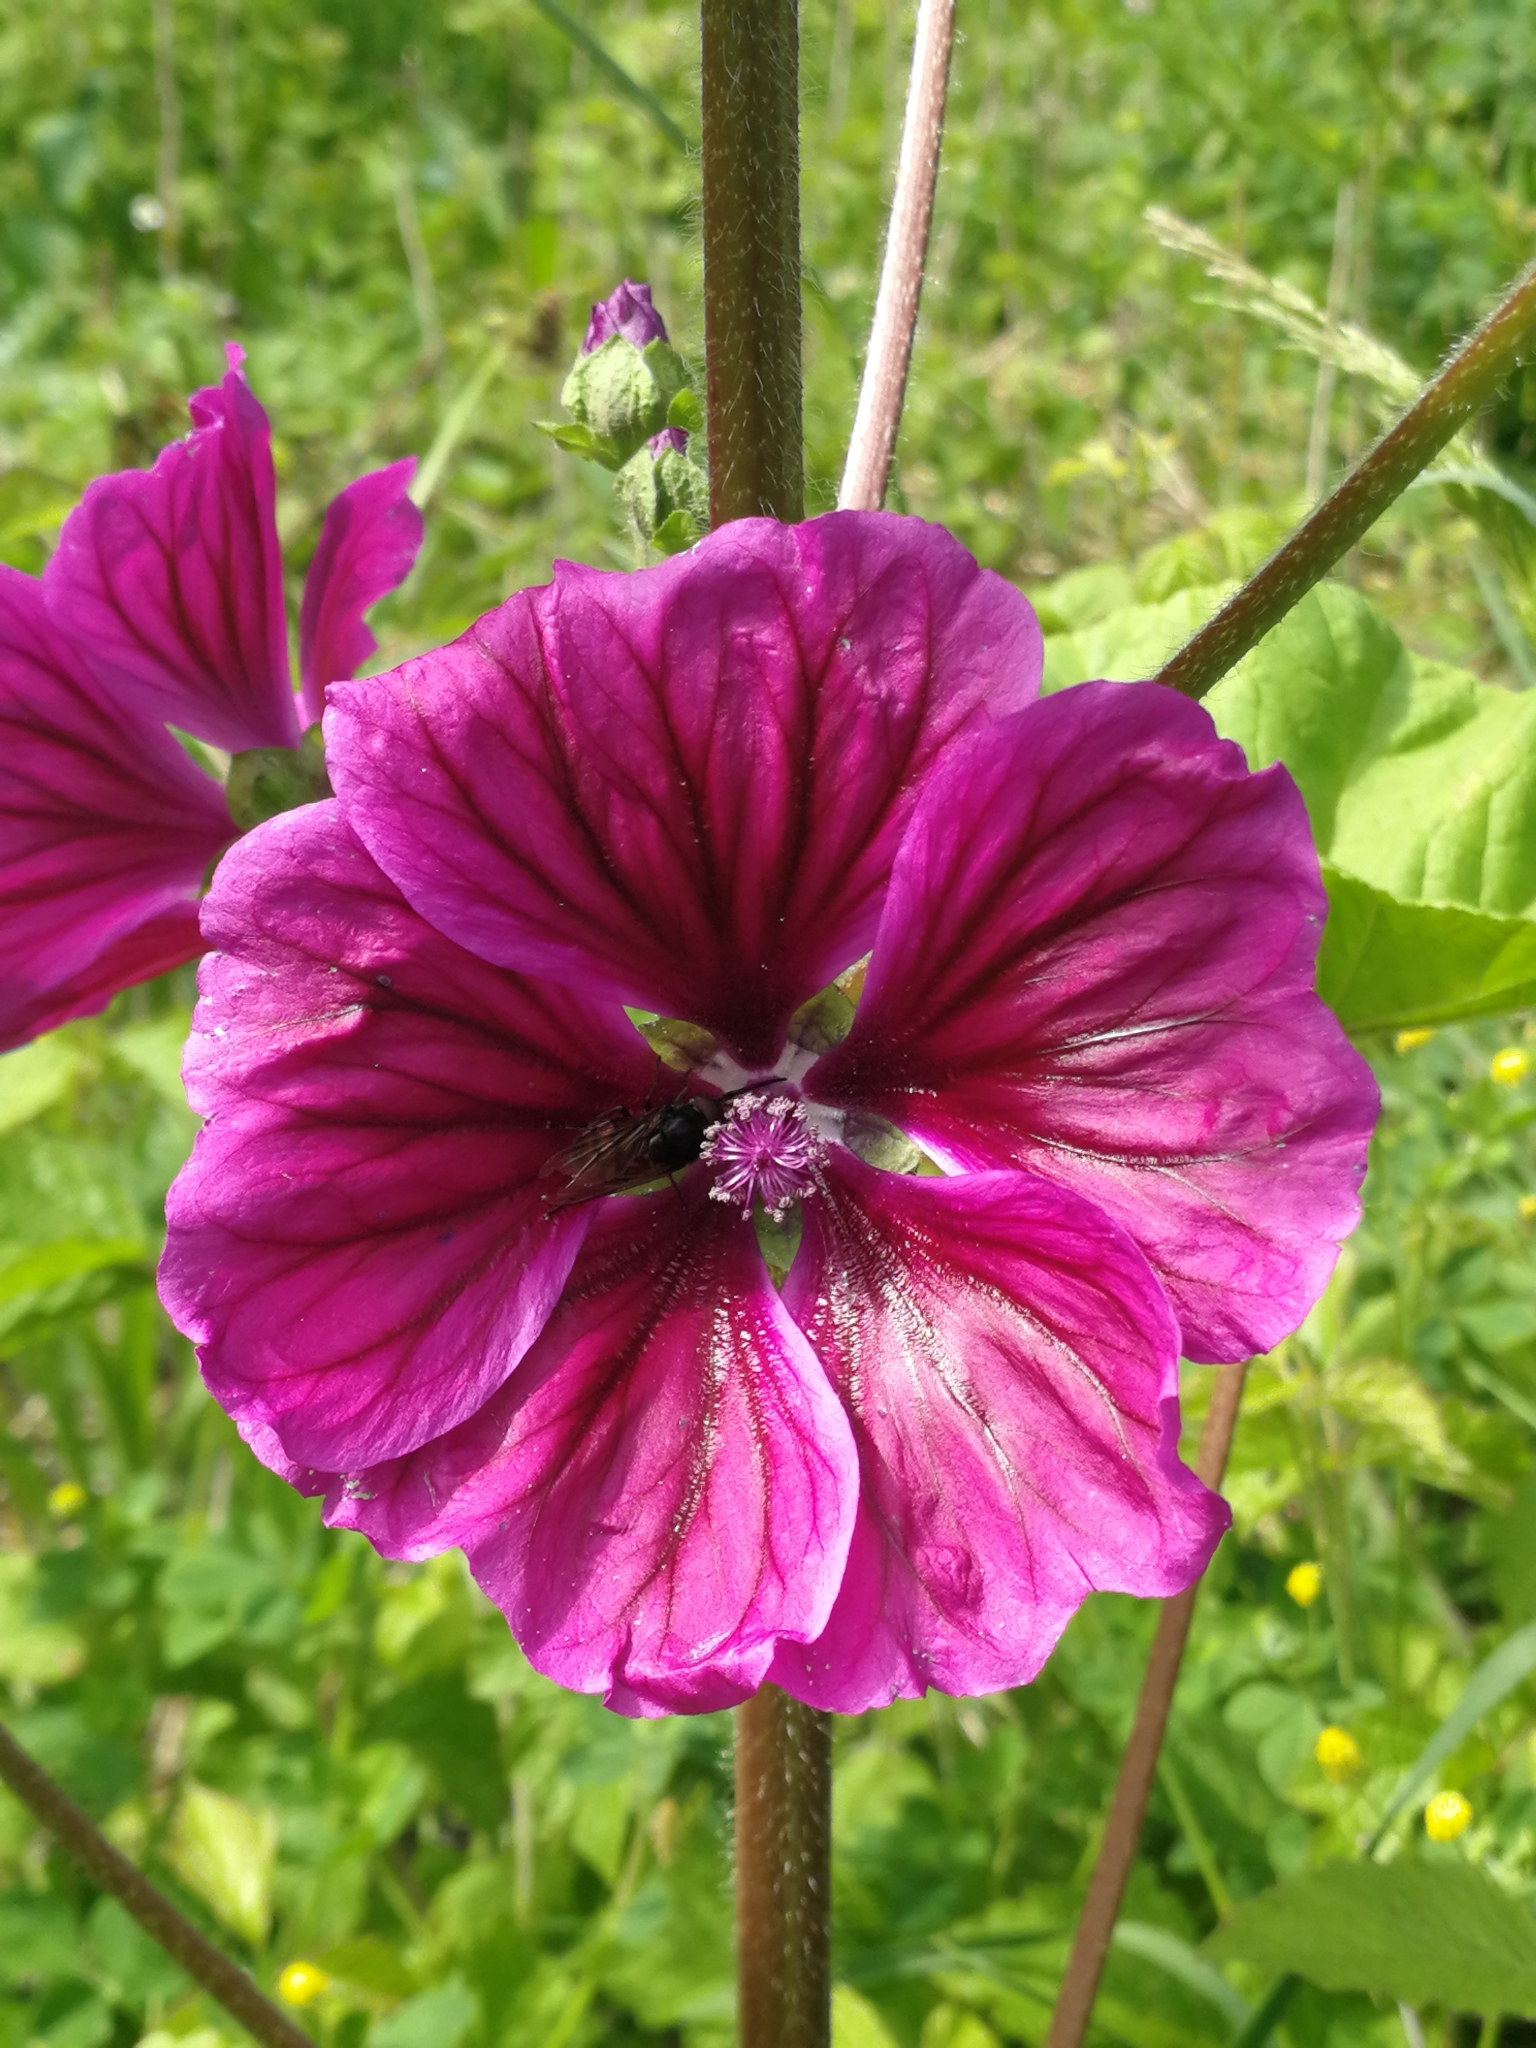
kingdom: Plantae
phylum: Tracheophyta
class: Magnoliopsida
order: Malvales
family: Malvaceae
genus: Malva
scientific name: Malva sylvestris
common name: Common mallow
